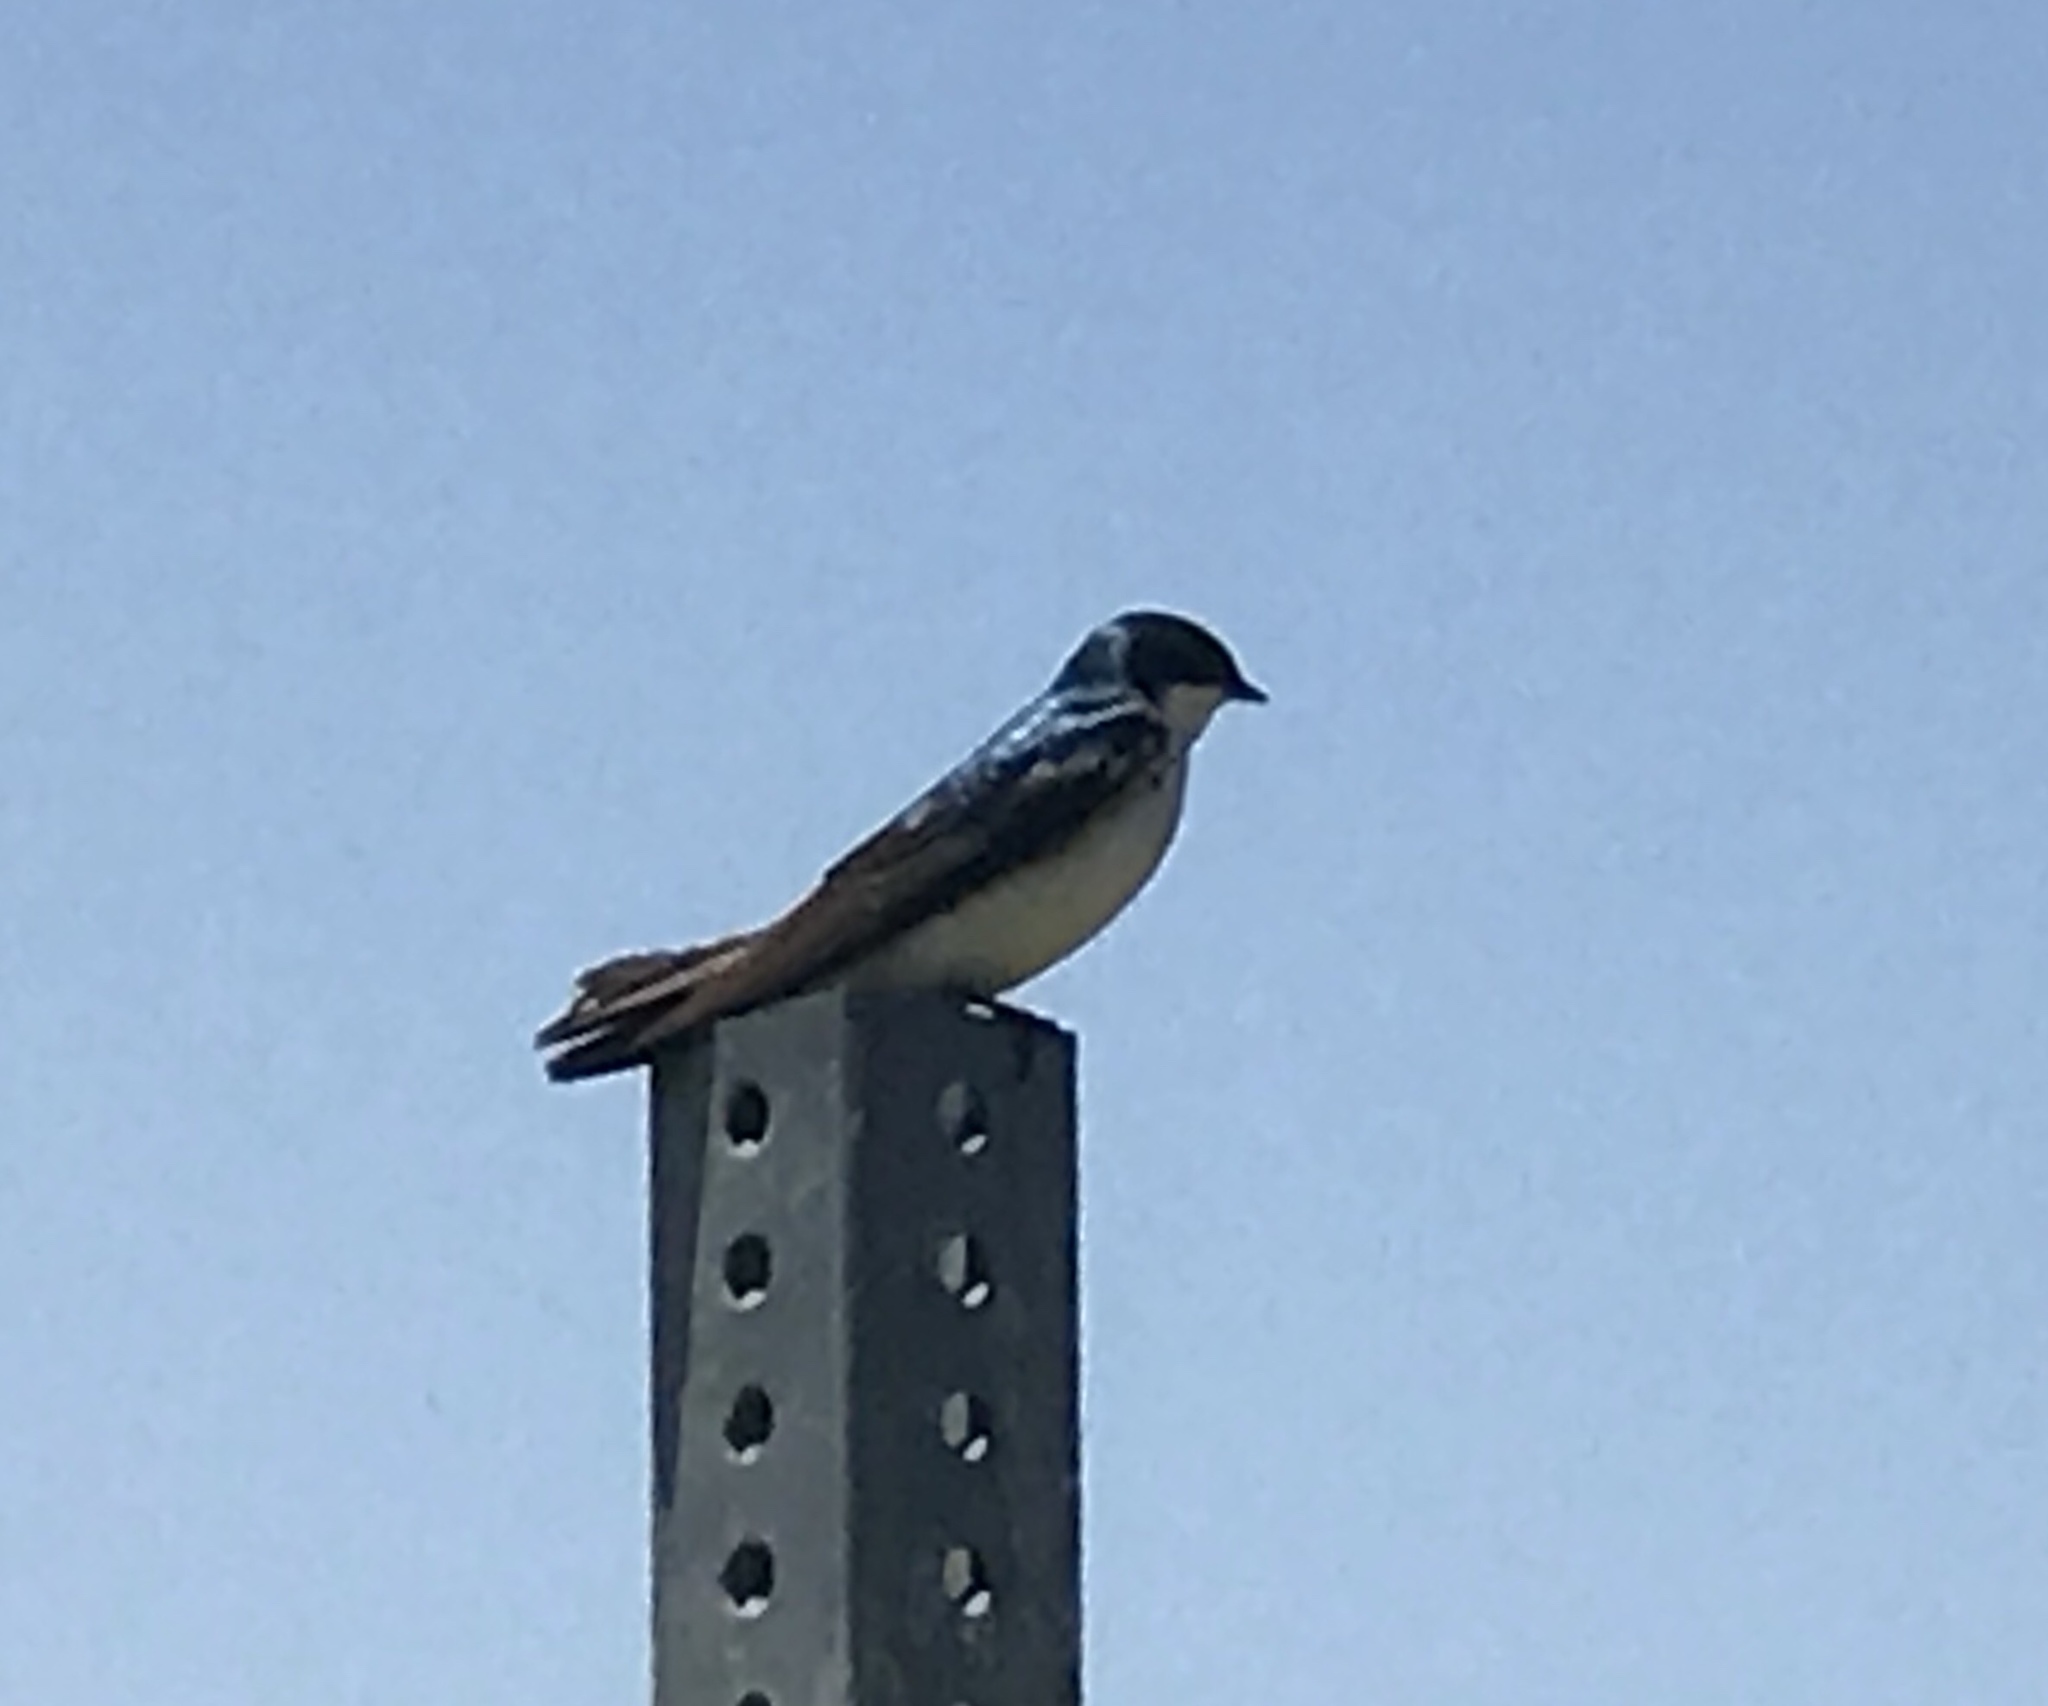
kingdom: Animalia
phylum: Chordata
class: Aves
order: Passeriformes
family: Hirundinidae
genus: Tachycineta
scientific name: Tachycineta bicolor
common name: Tree swallow
